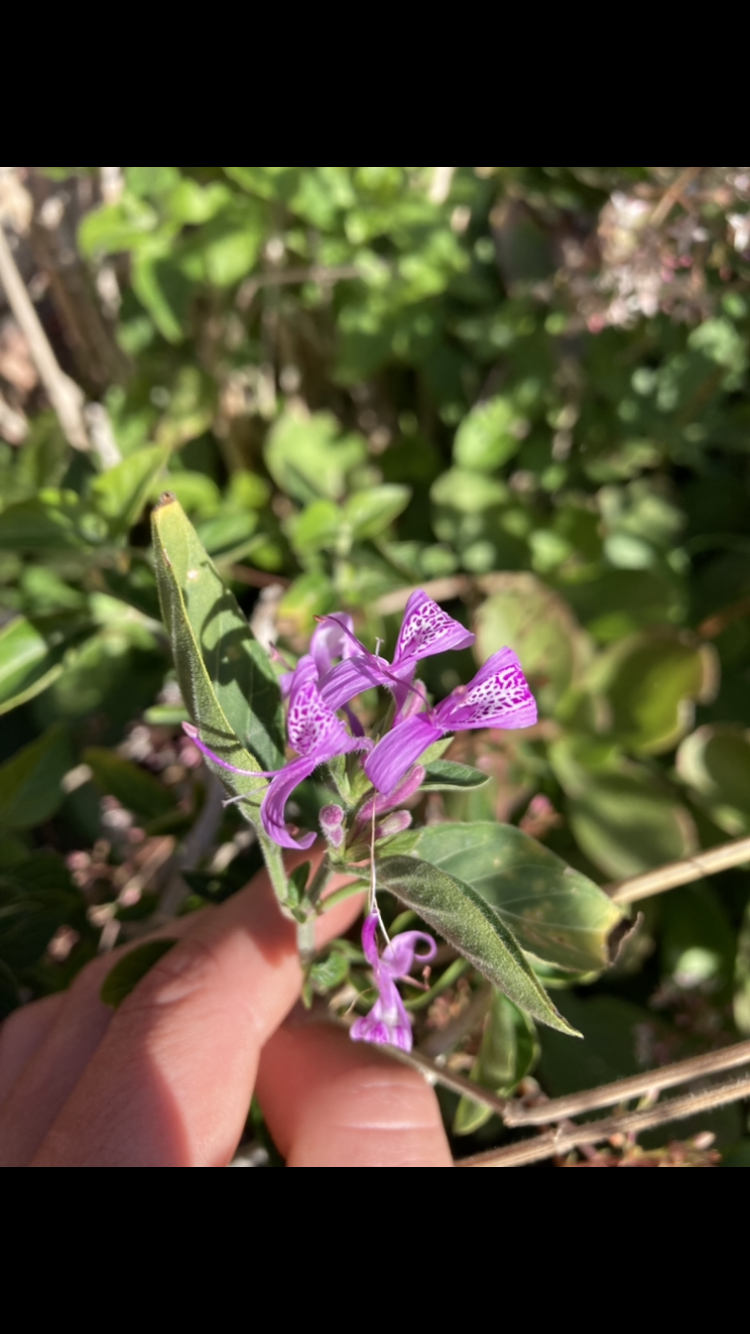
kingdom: Plantae
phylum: Tracheophyta
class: Magnoliopsida
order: Lamiales
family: Acanthaceae
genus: Hypoestes
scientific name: Hypoestes aristata
